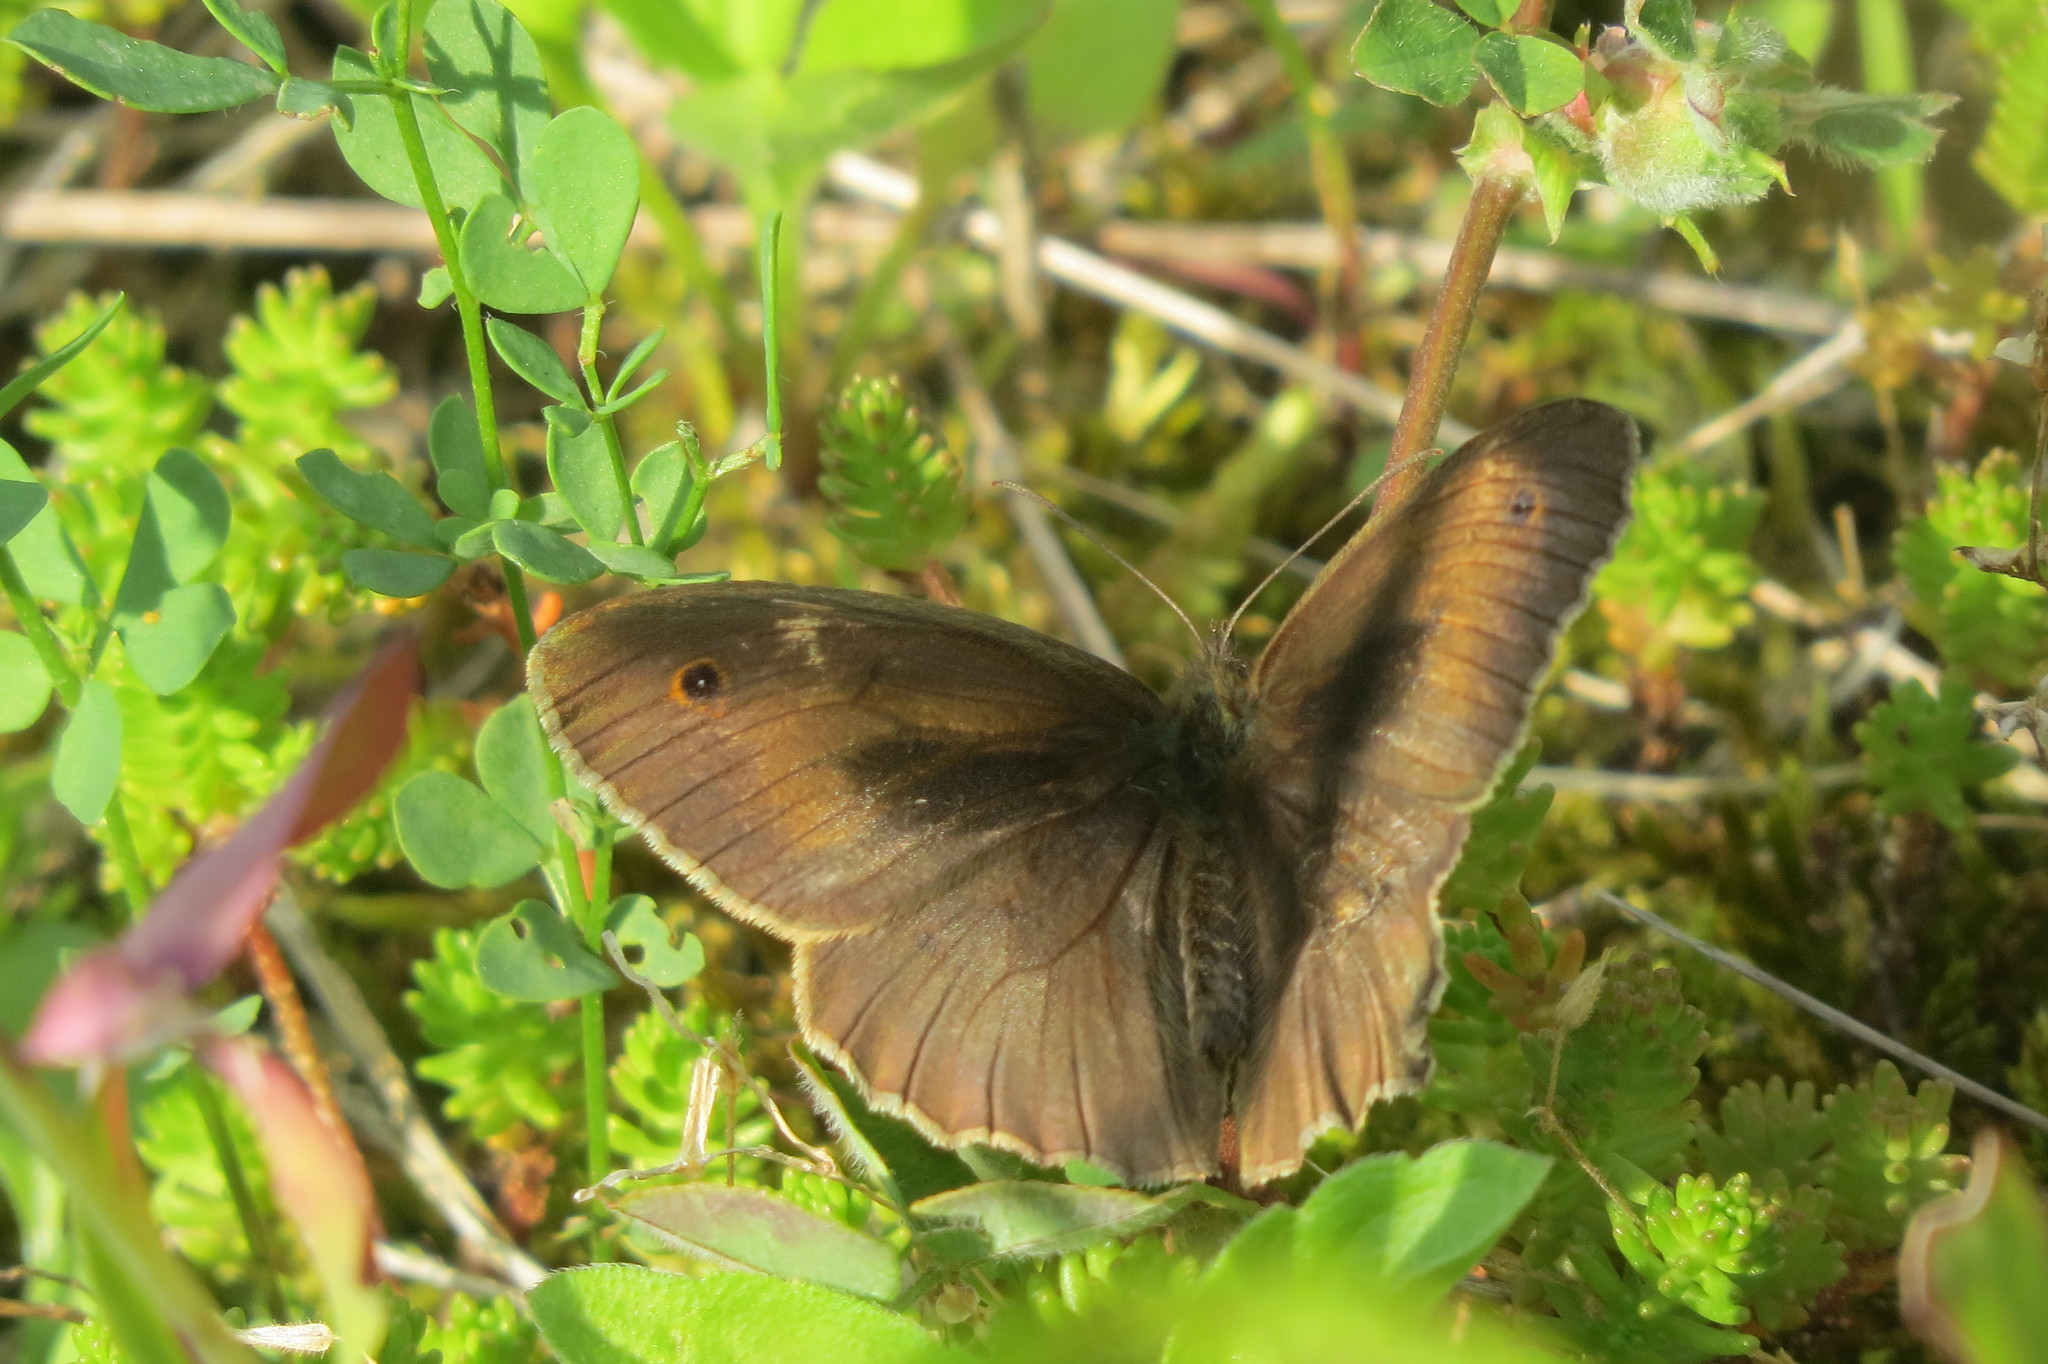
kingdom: Animalia
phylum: Arthropoda
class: Insecta
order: Lepidoptera
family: Nymphalidae
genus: Maniola
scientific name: Maniola jurtina
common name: Meadow brown
